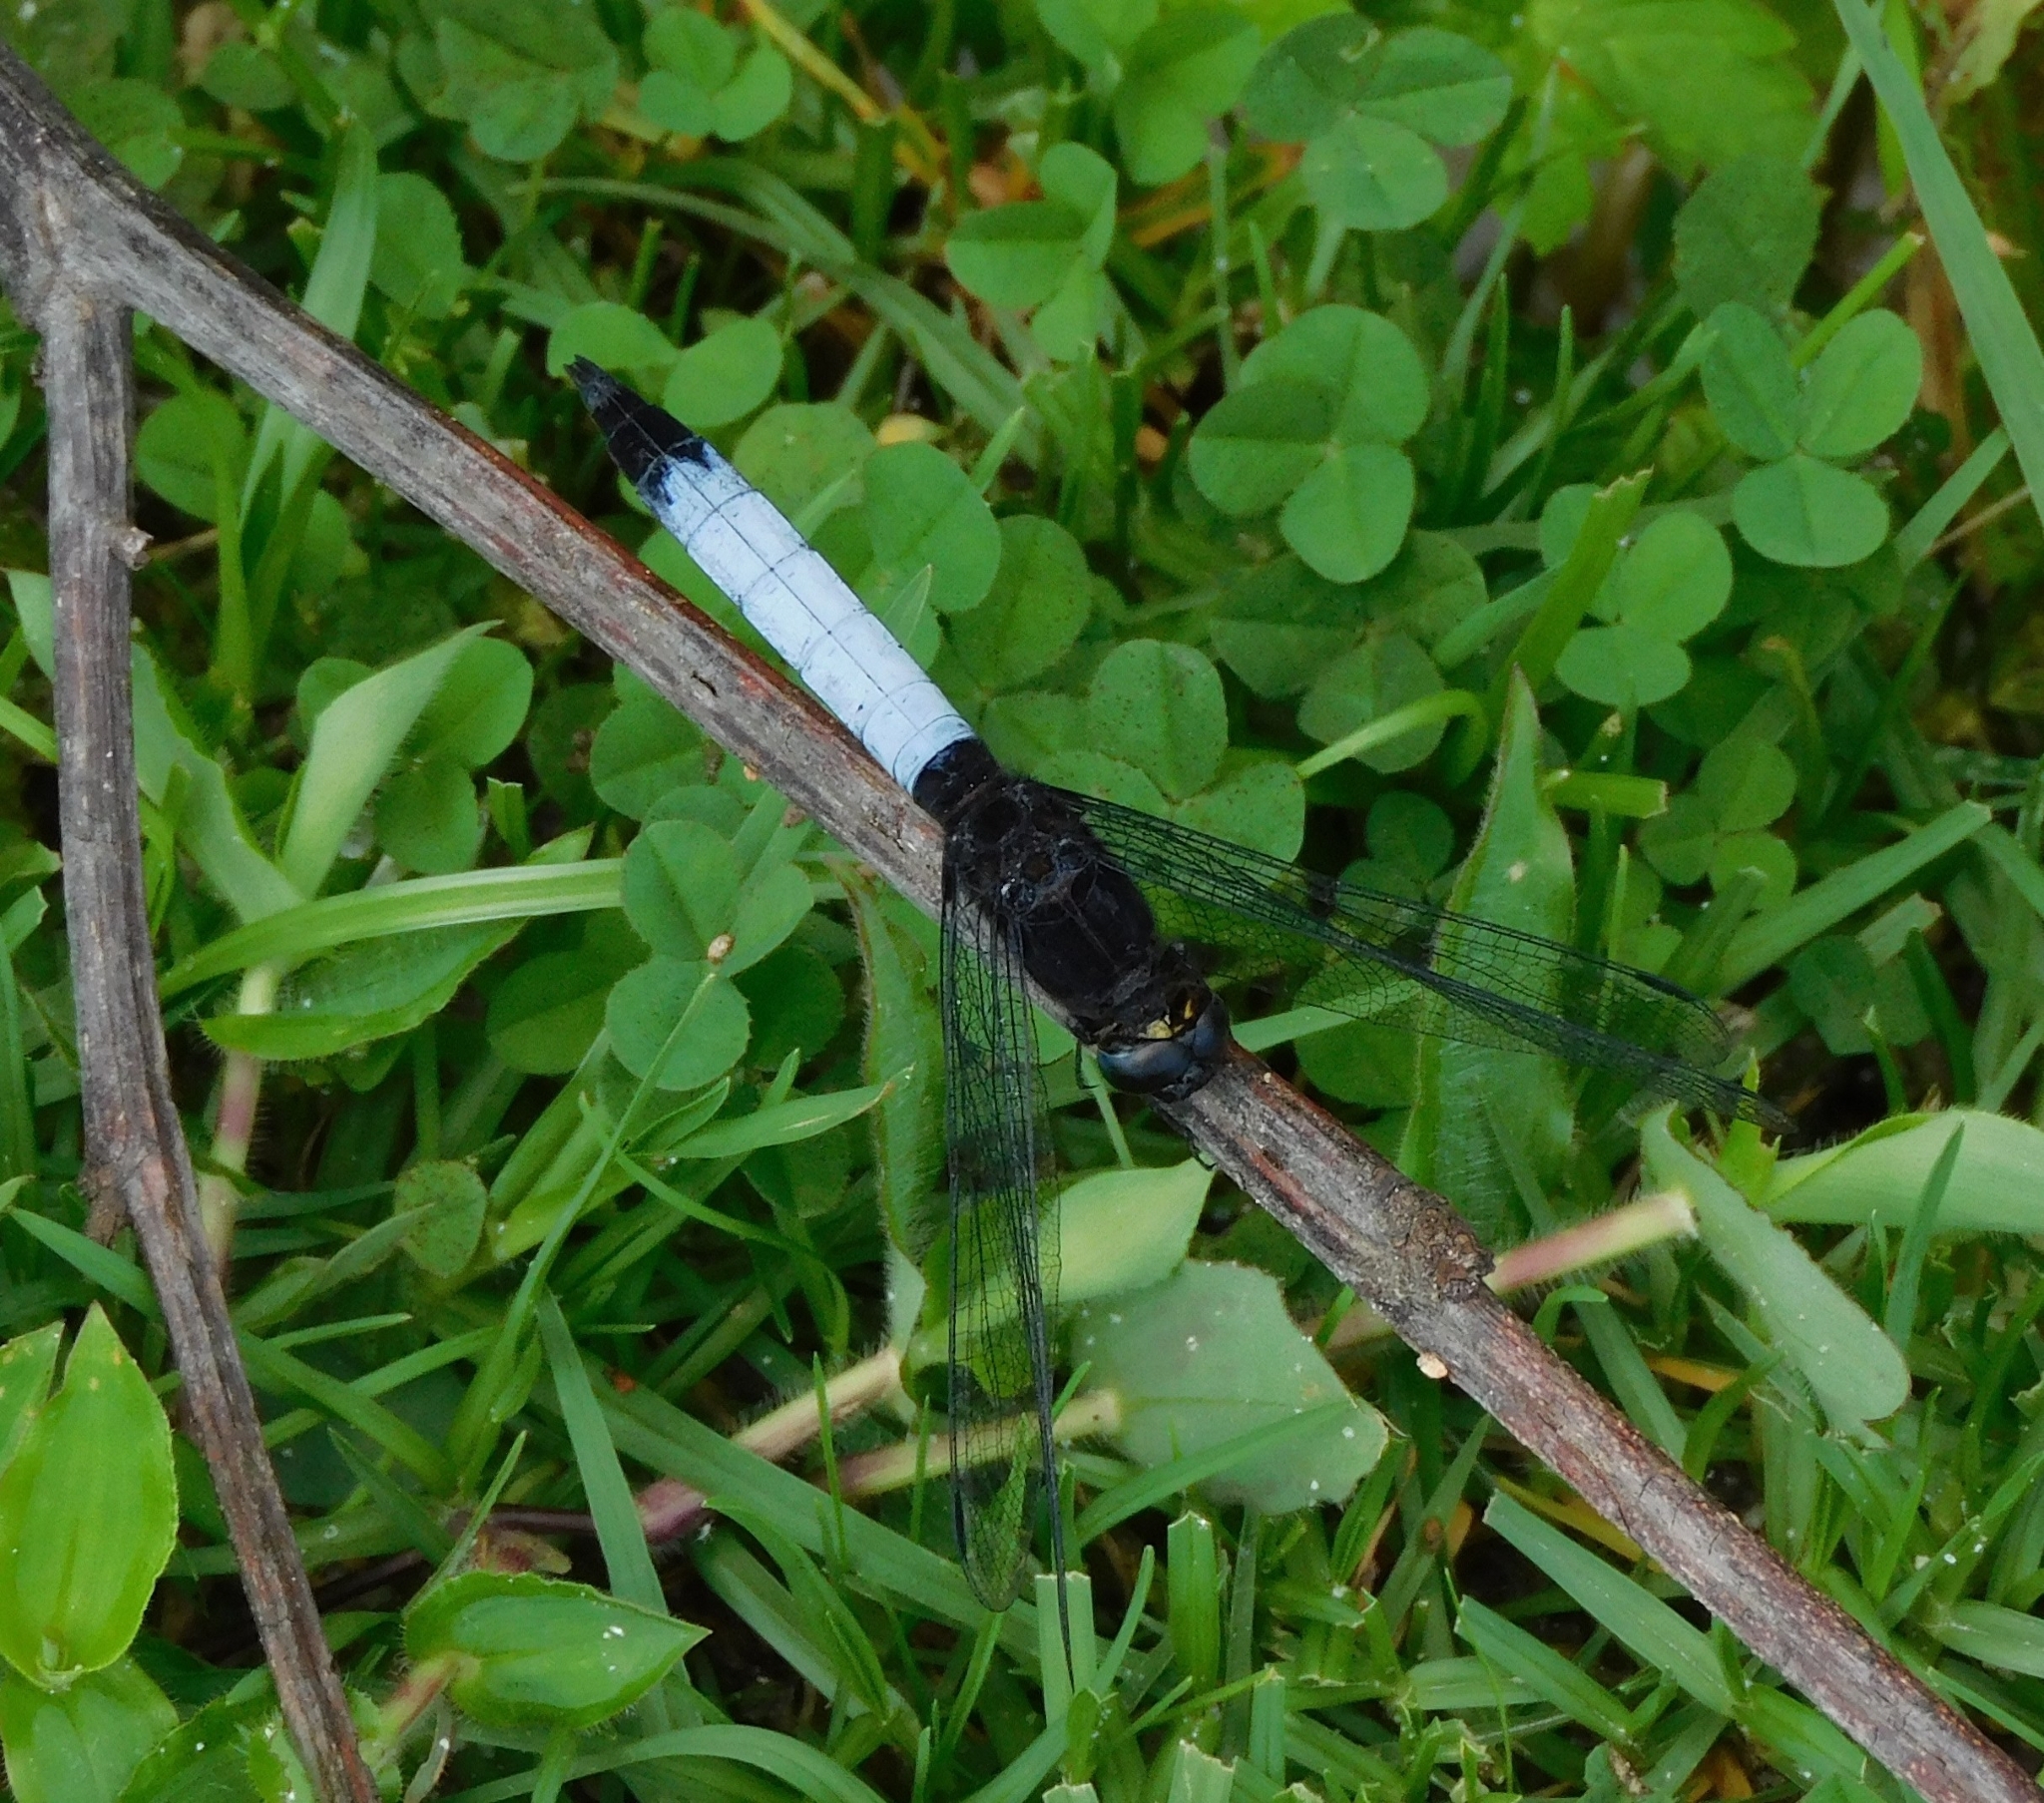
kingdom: Animalia
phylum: Arthropoda
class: Insecta
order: Odonata
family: Libellulidae
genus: Orthetrum
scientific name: Orthetrum triangulare
